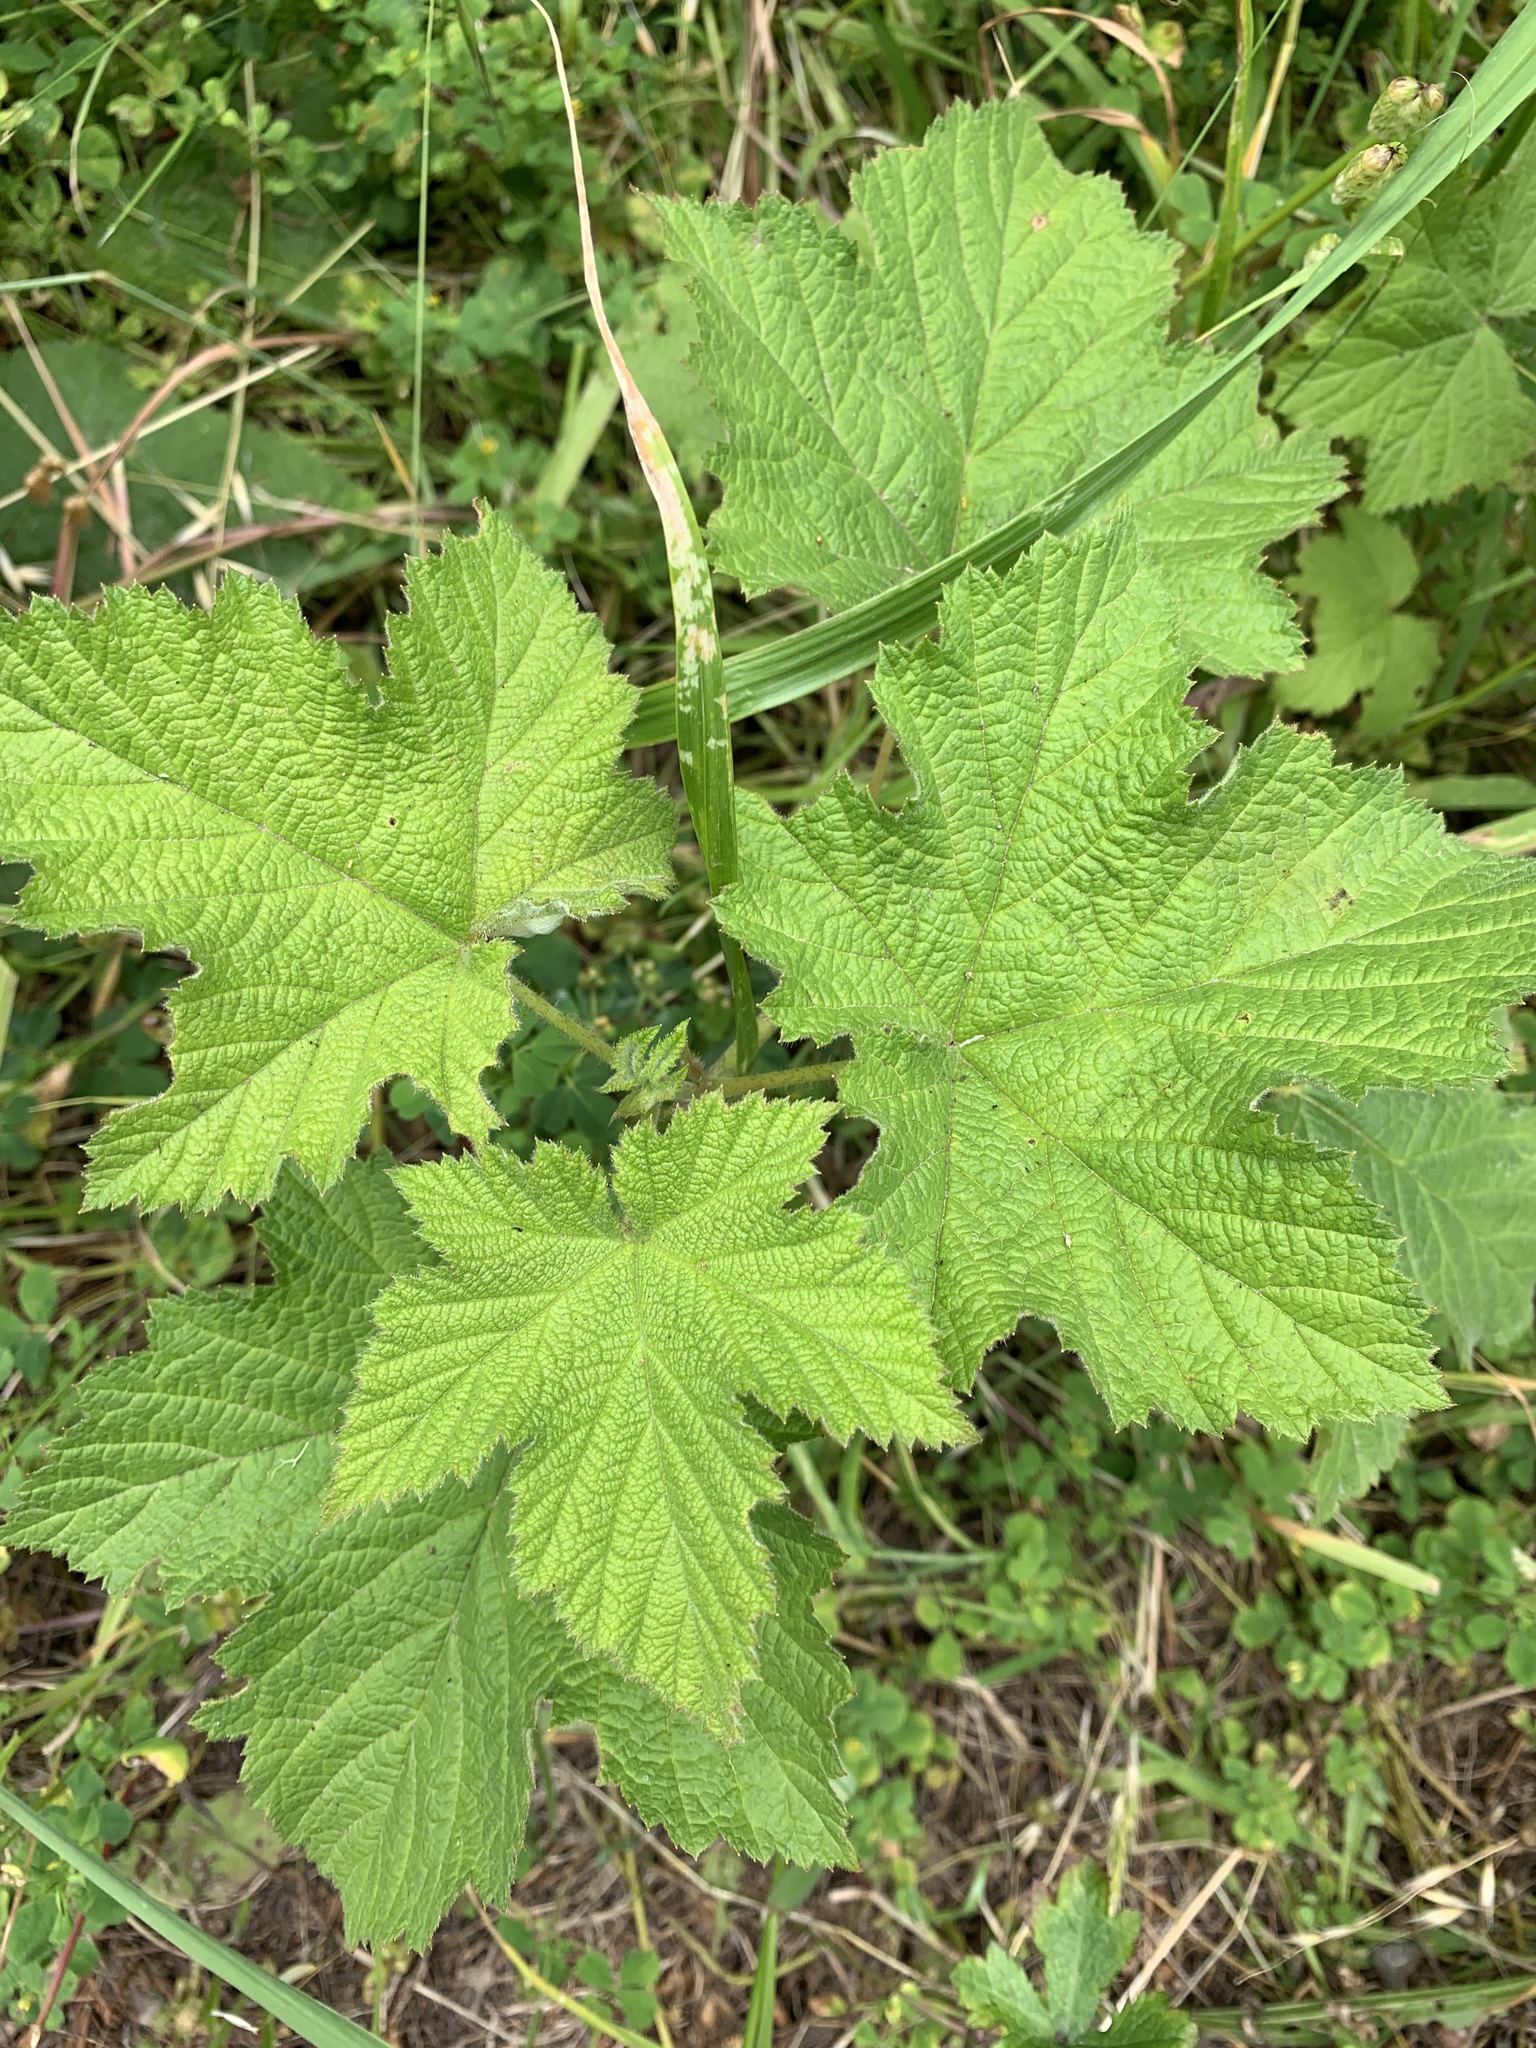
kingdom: Plantae
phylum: Tracheophyta
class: Magnoliopsida
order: Rosales
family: Rosaceae
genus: Rubus
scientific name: Rubus parviflorus
